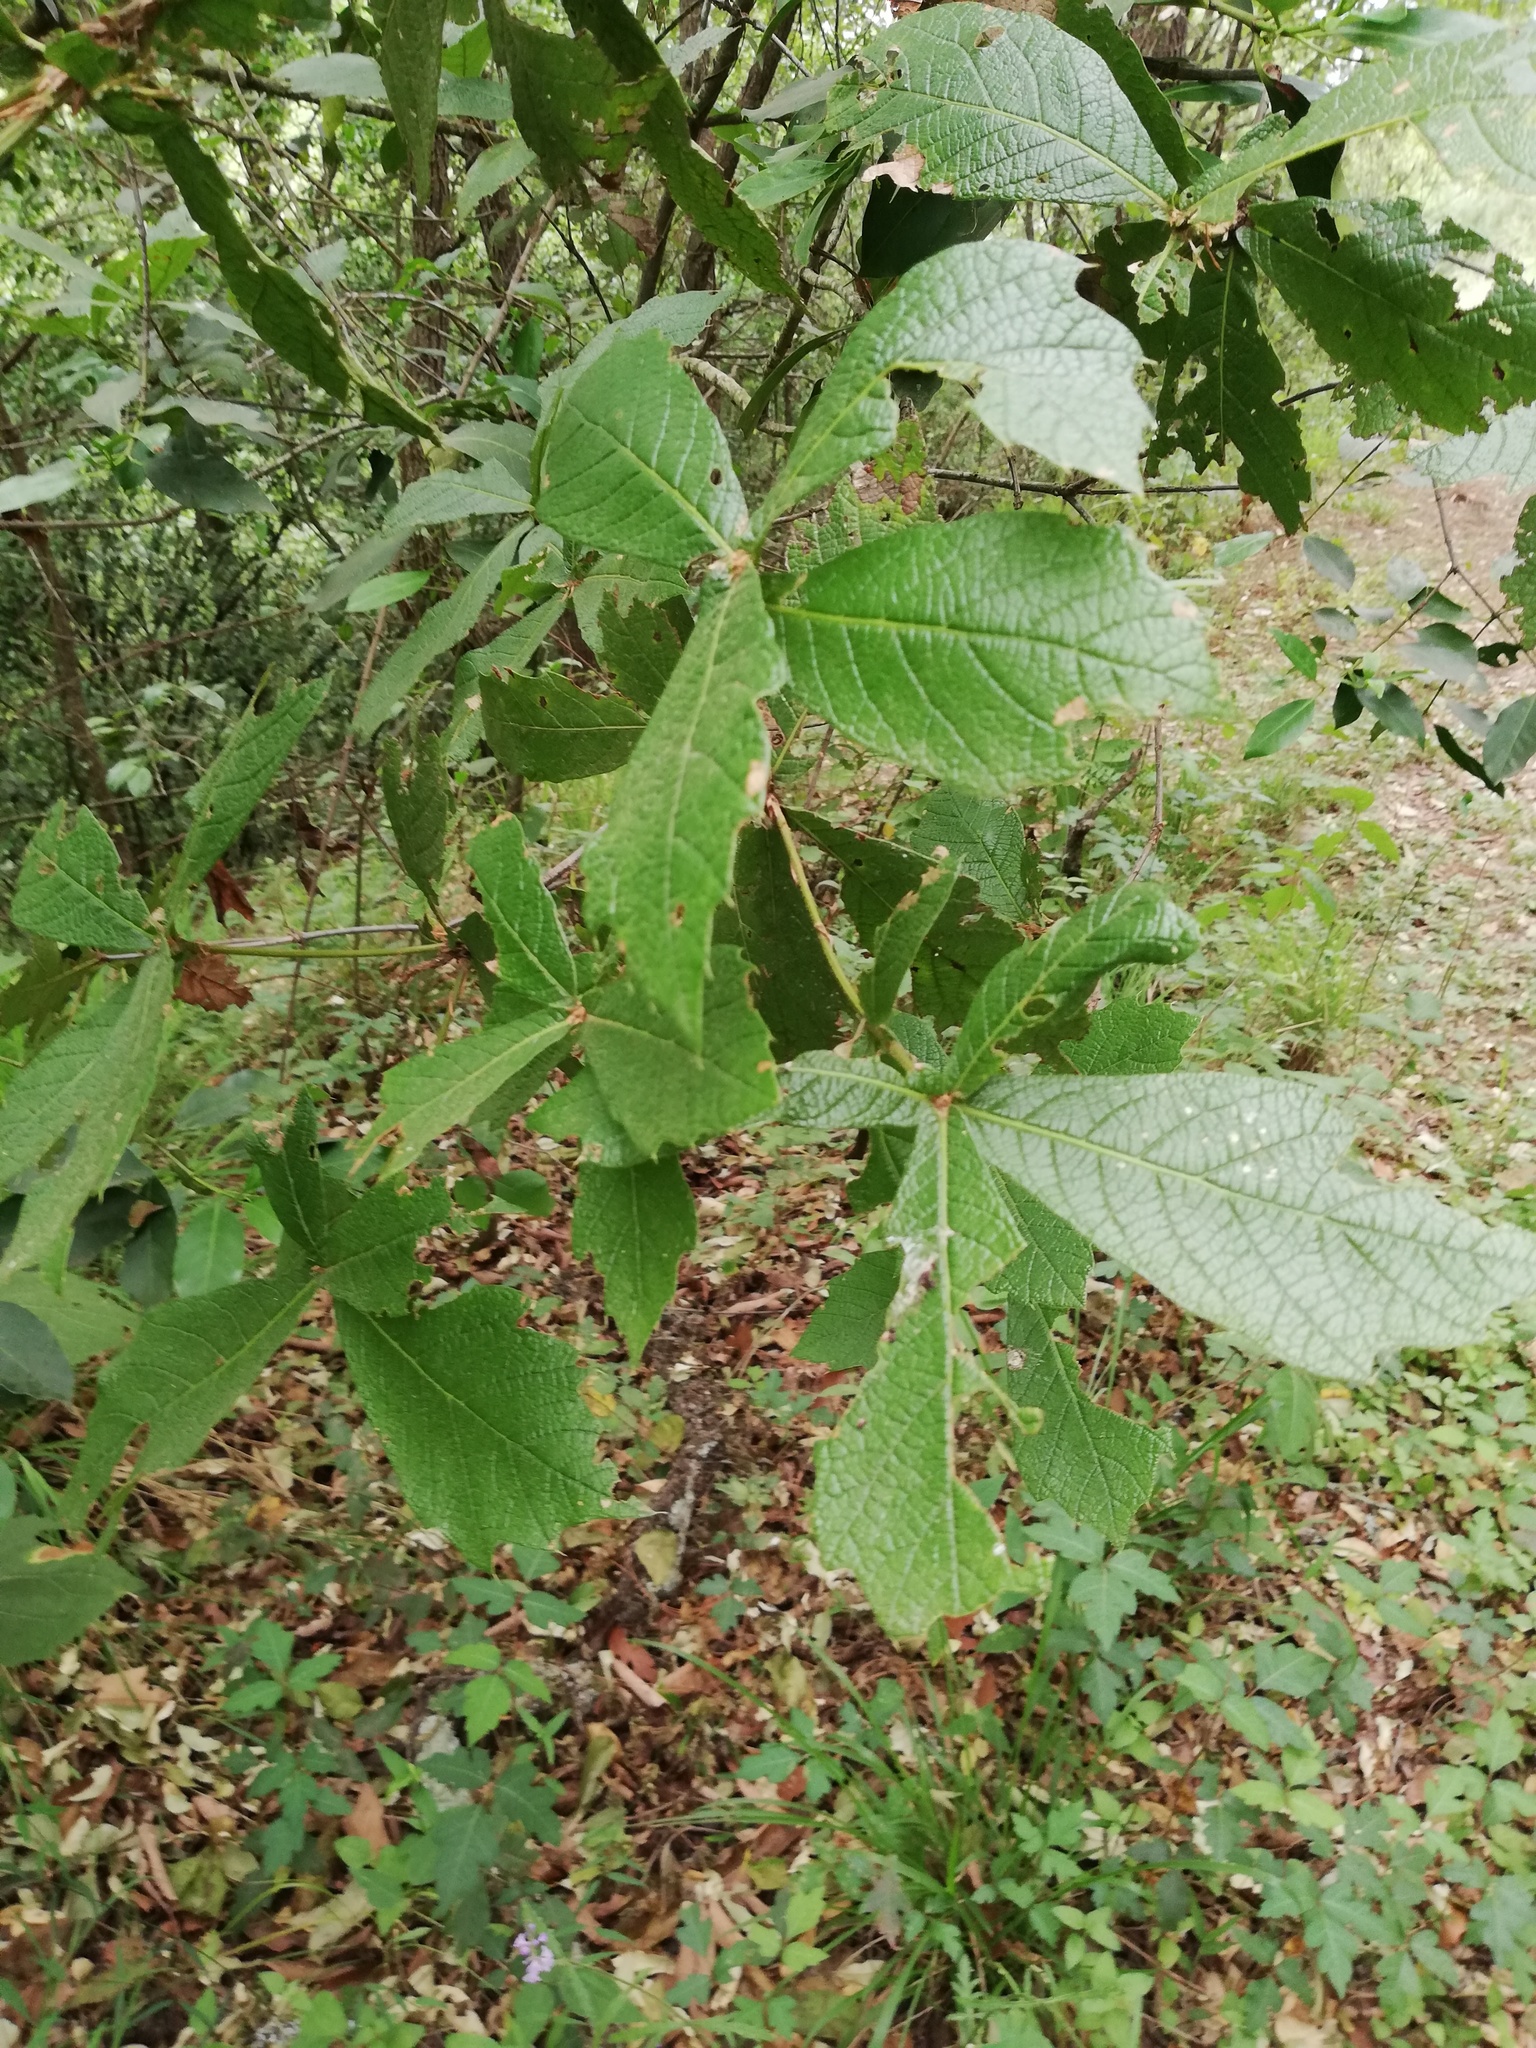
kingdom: Plantae
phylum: Tracheophyta
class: Magnoliopsida
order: Fagales
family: Fagaceae
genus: Quercus
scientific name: Quercus rysophylla
